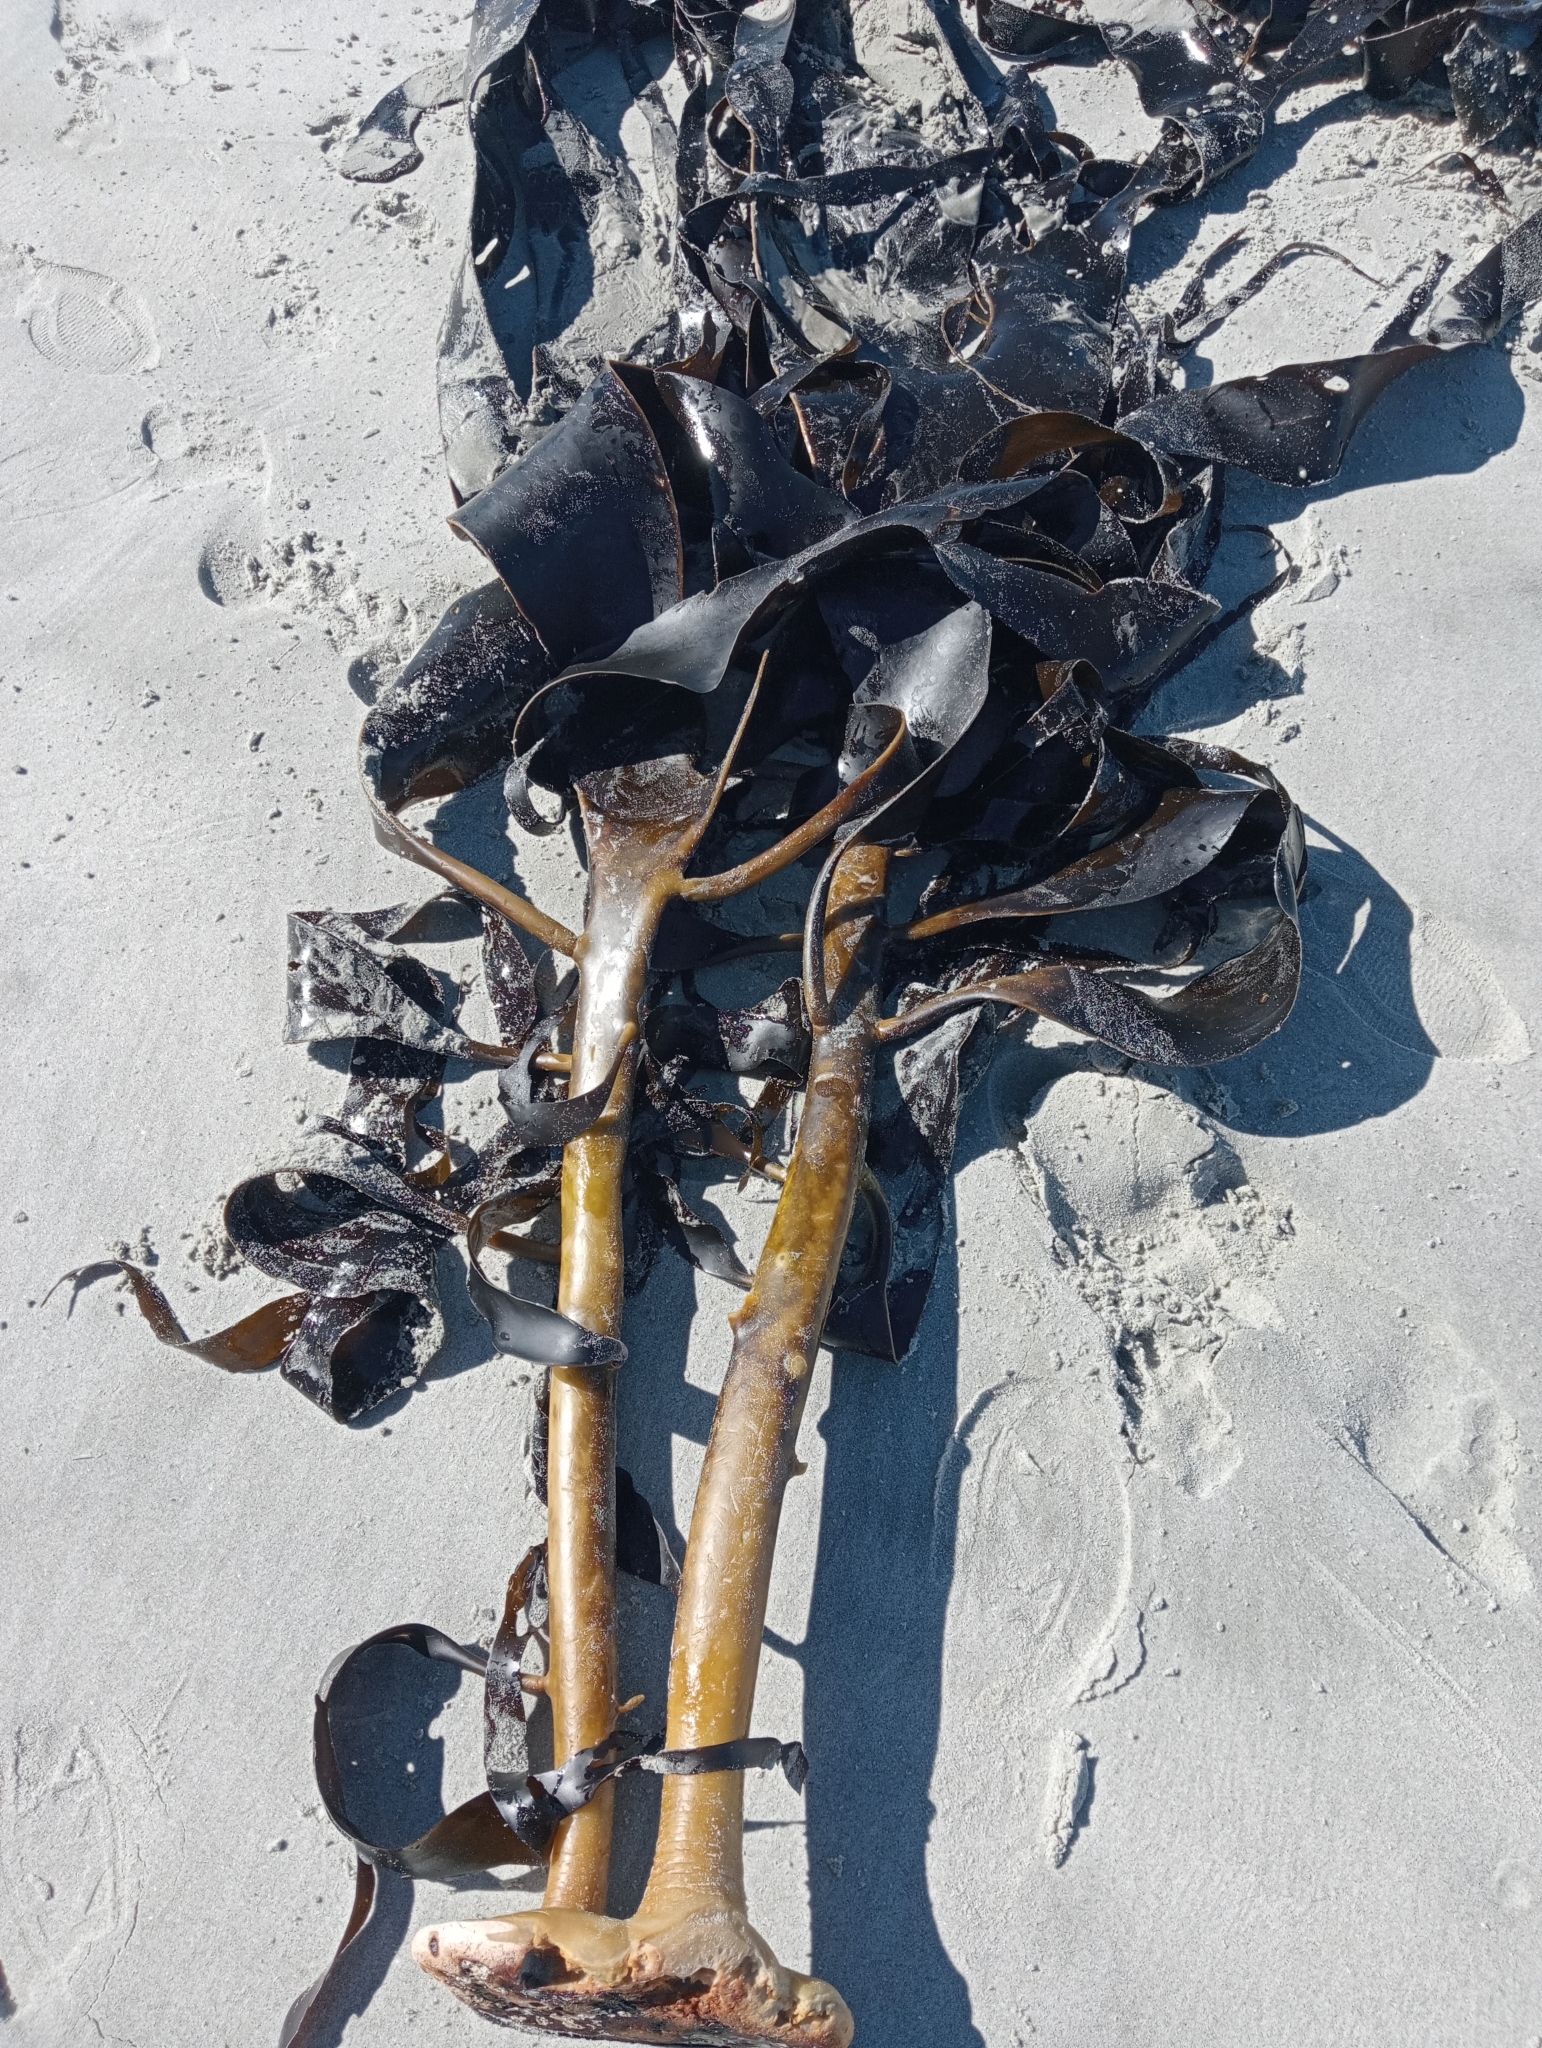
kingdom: Chromista
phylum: Ochrophyta
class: Phaeophyceae
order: Fucales
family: Durvillaeaceae
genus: Durvillaea
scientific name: Durvillaea willana
